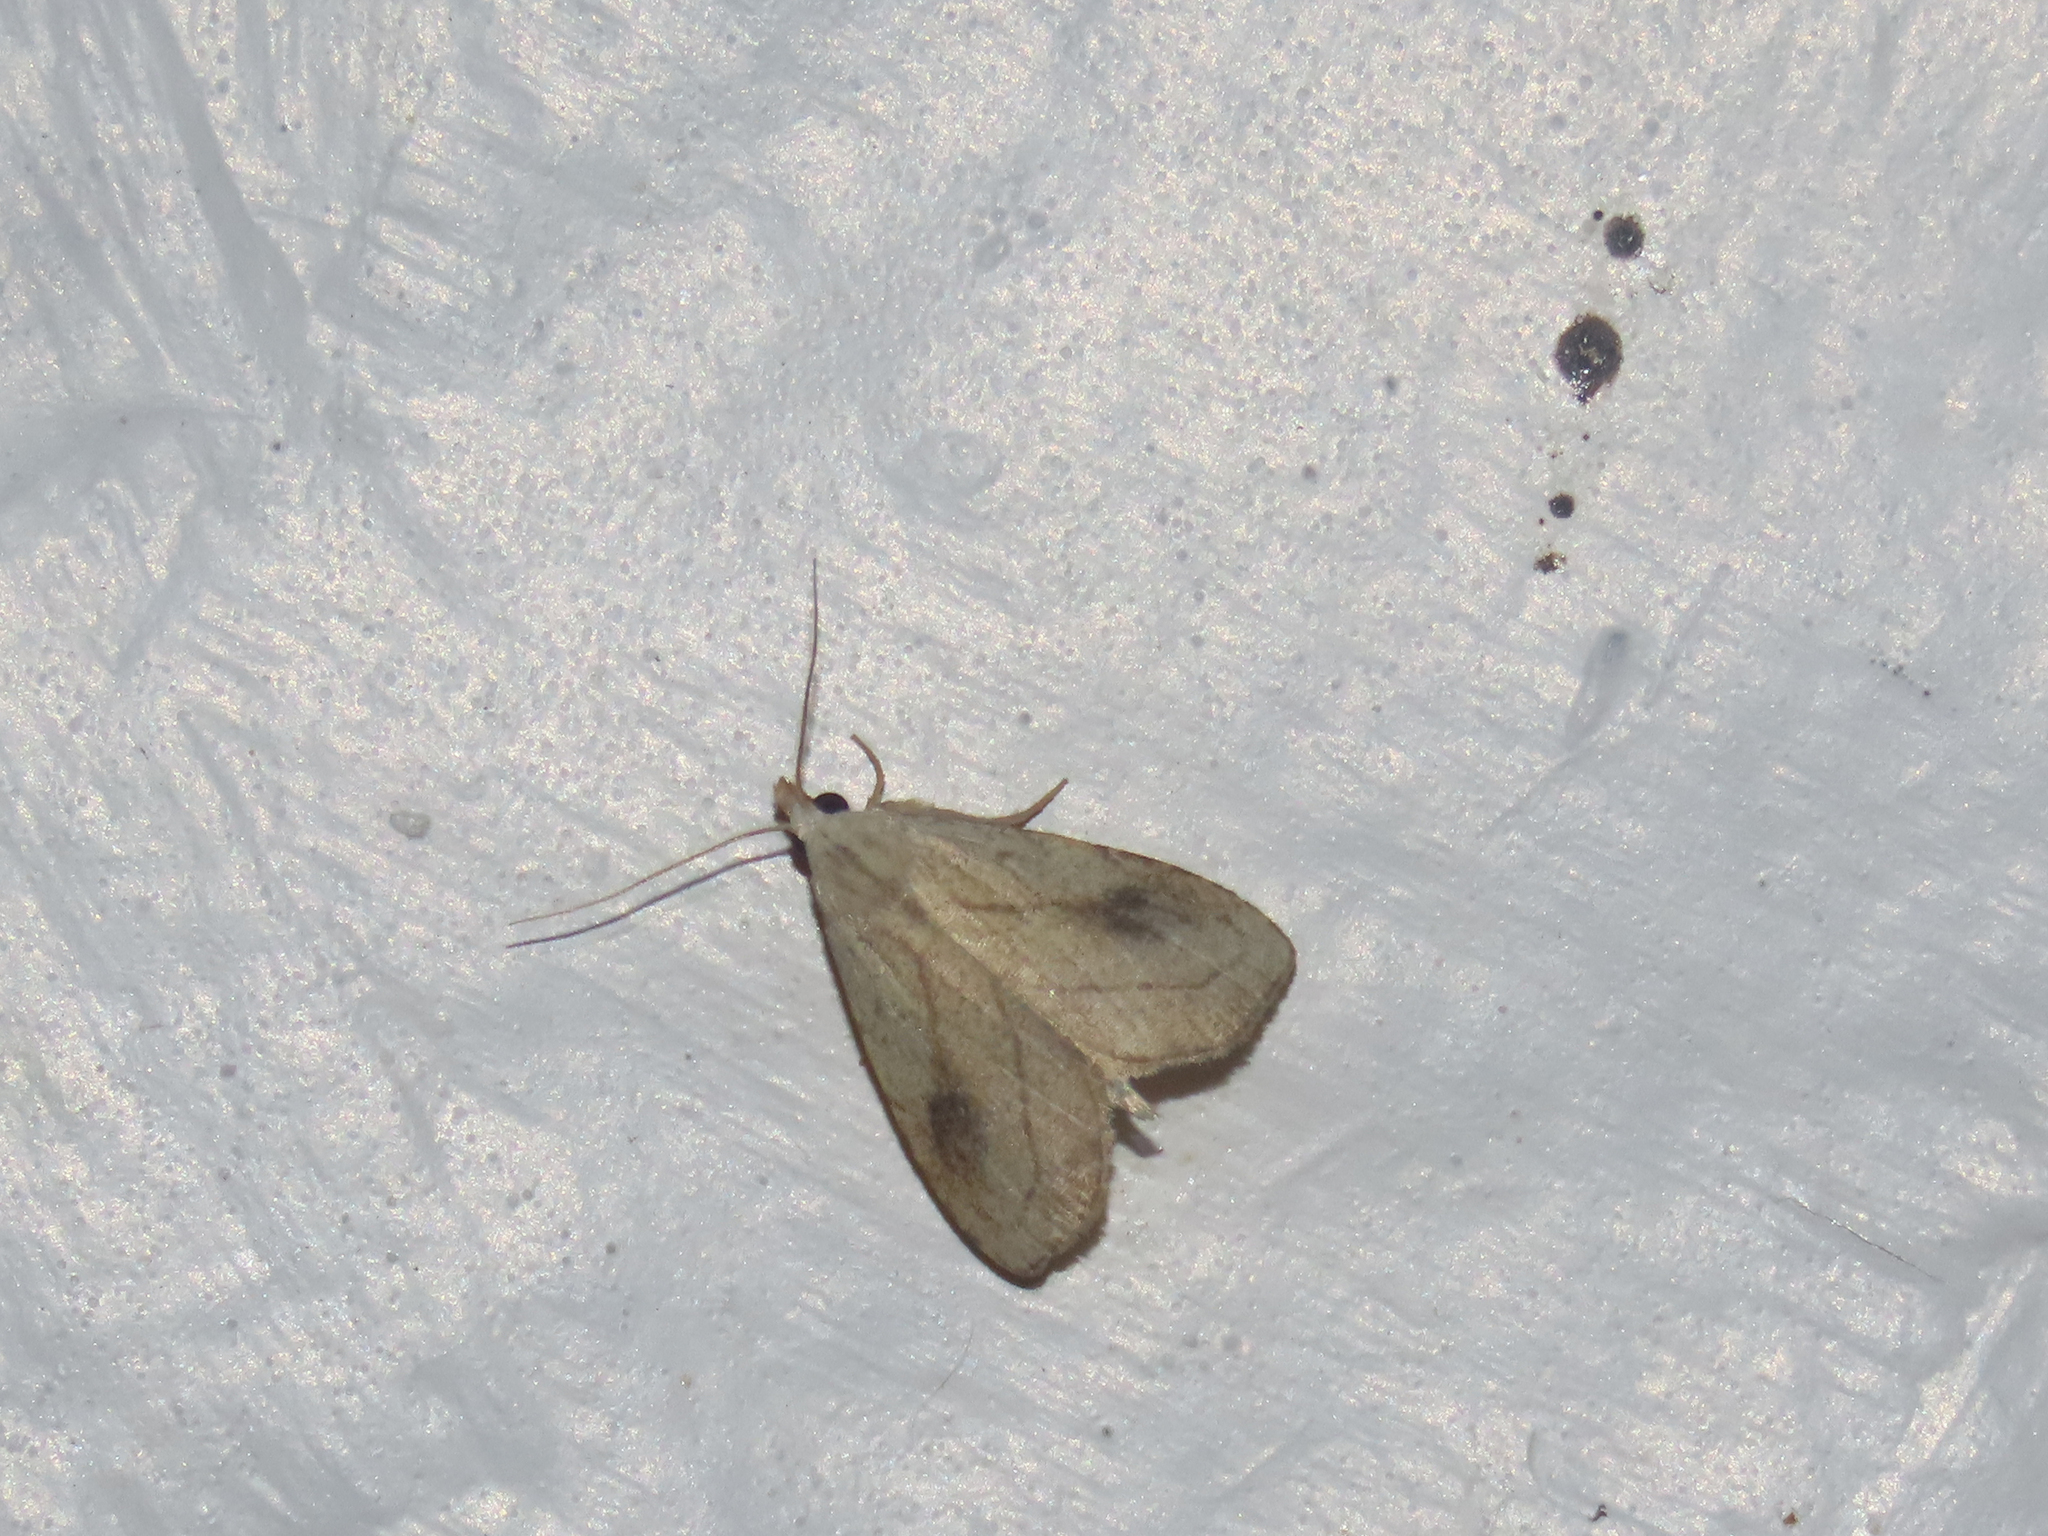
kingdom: Animalia
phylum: Arthropoda
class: Insecta
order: Lepidoptera
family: Erebidae
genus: Rivula
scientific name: Rivula propinqualis
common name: Spotted grass moth
